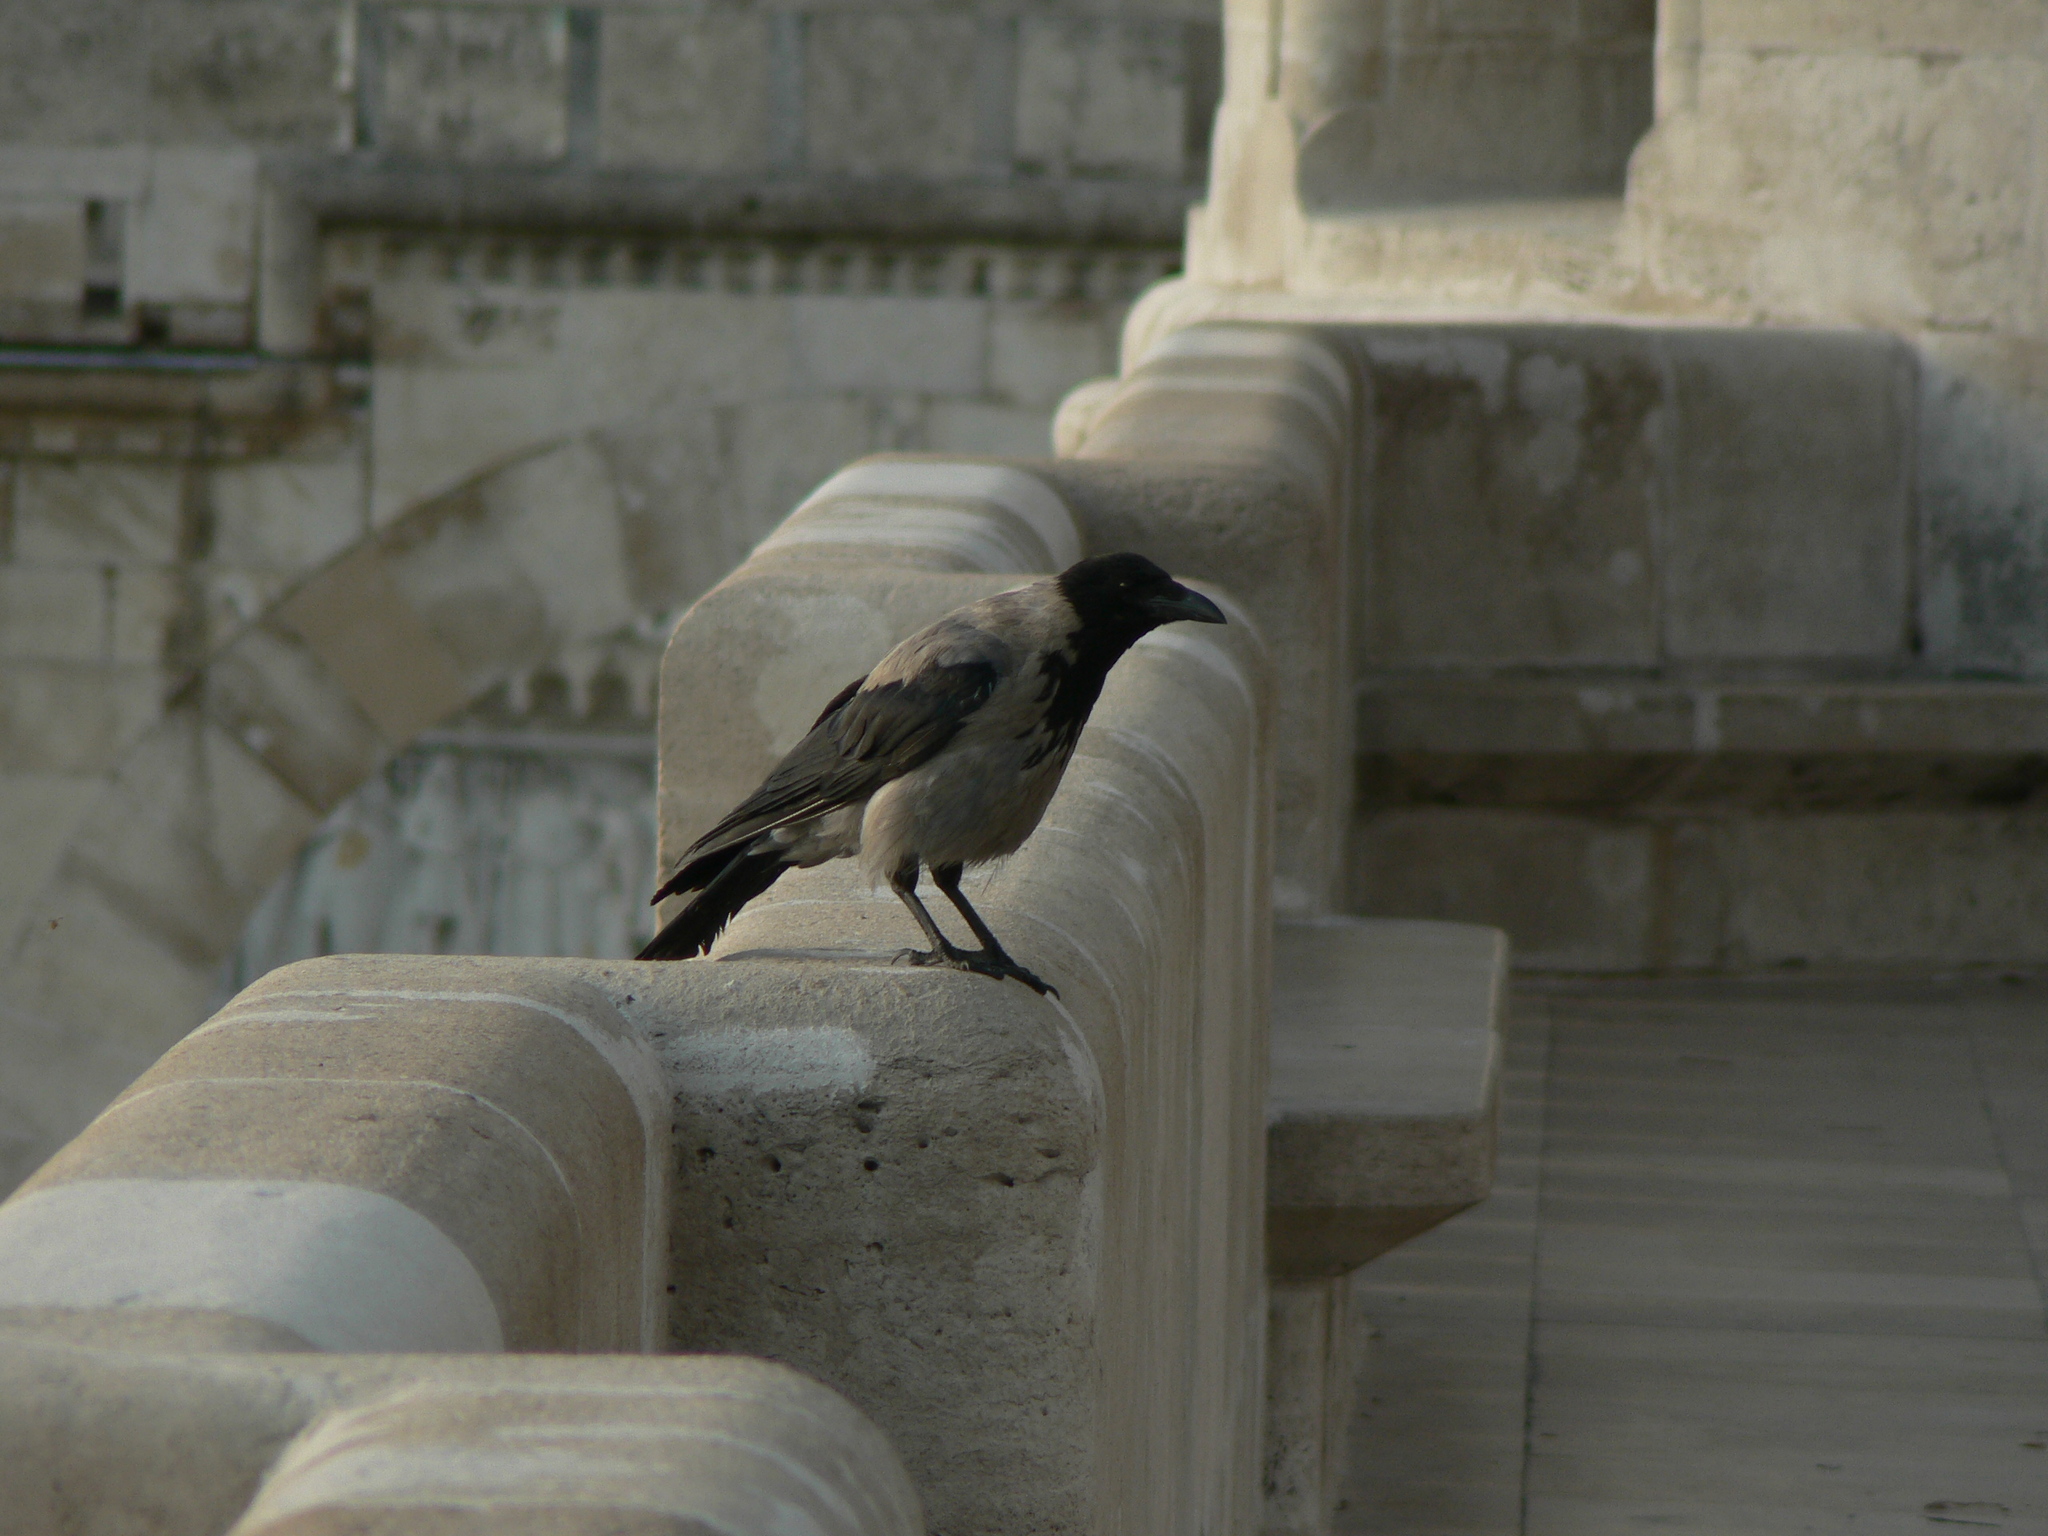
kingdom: Animalia
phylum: Chordata
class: Aves
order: Passeriformes
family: Corvidae
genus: Corvus
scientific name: Corvus cornix
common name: Hooded crow
